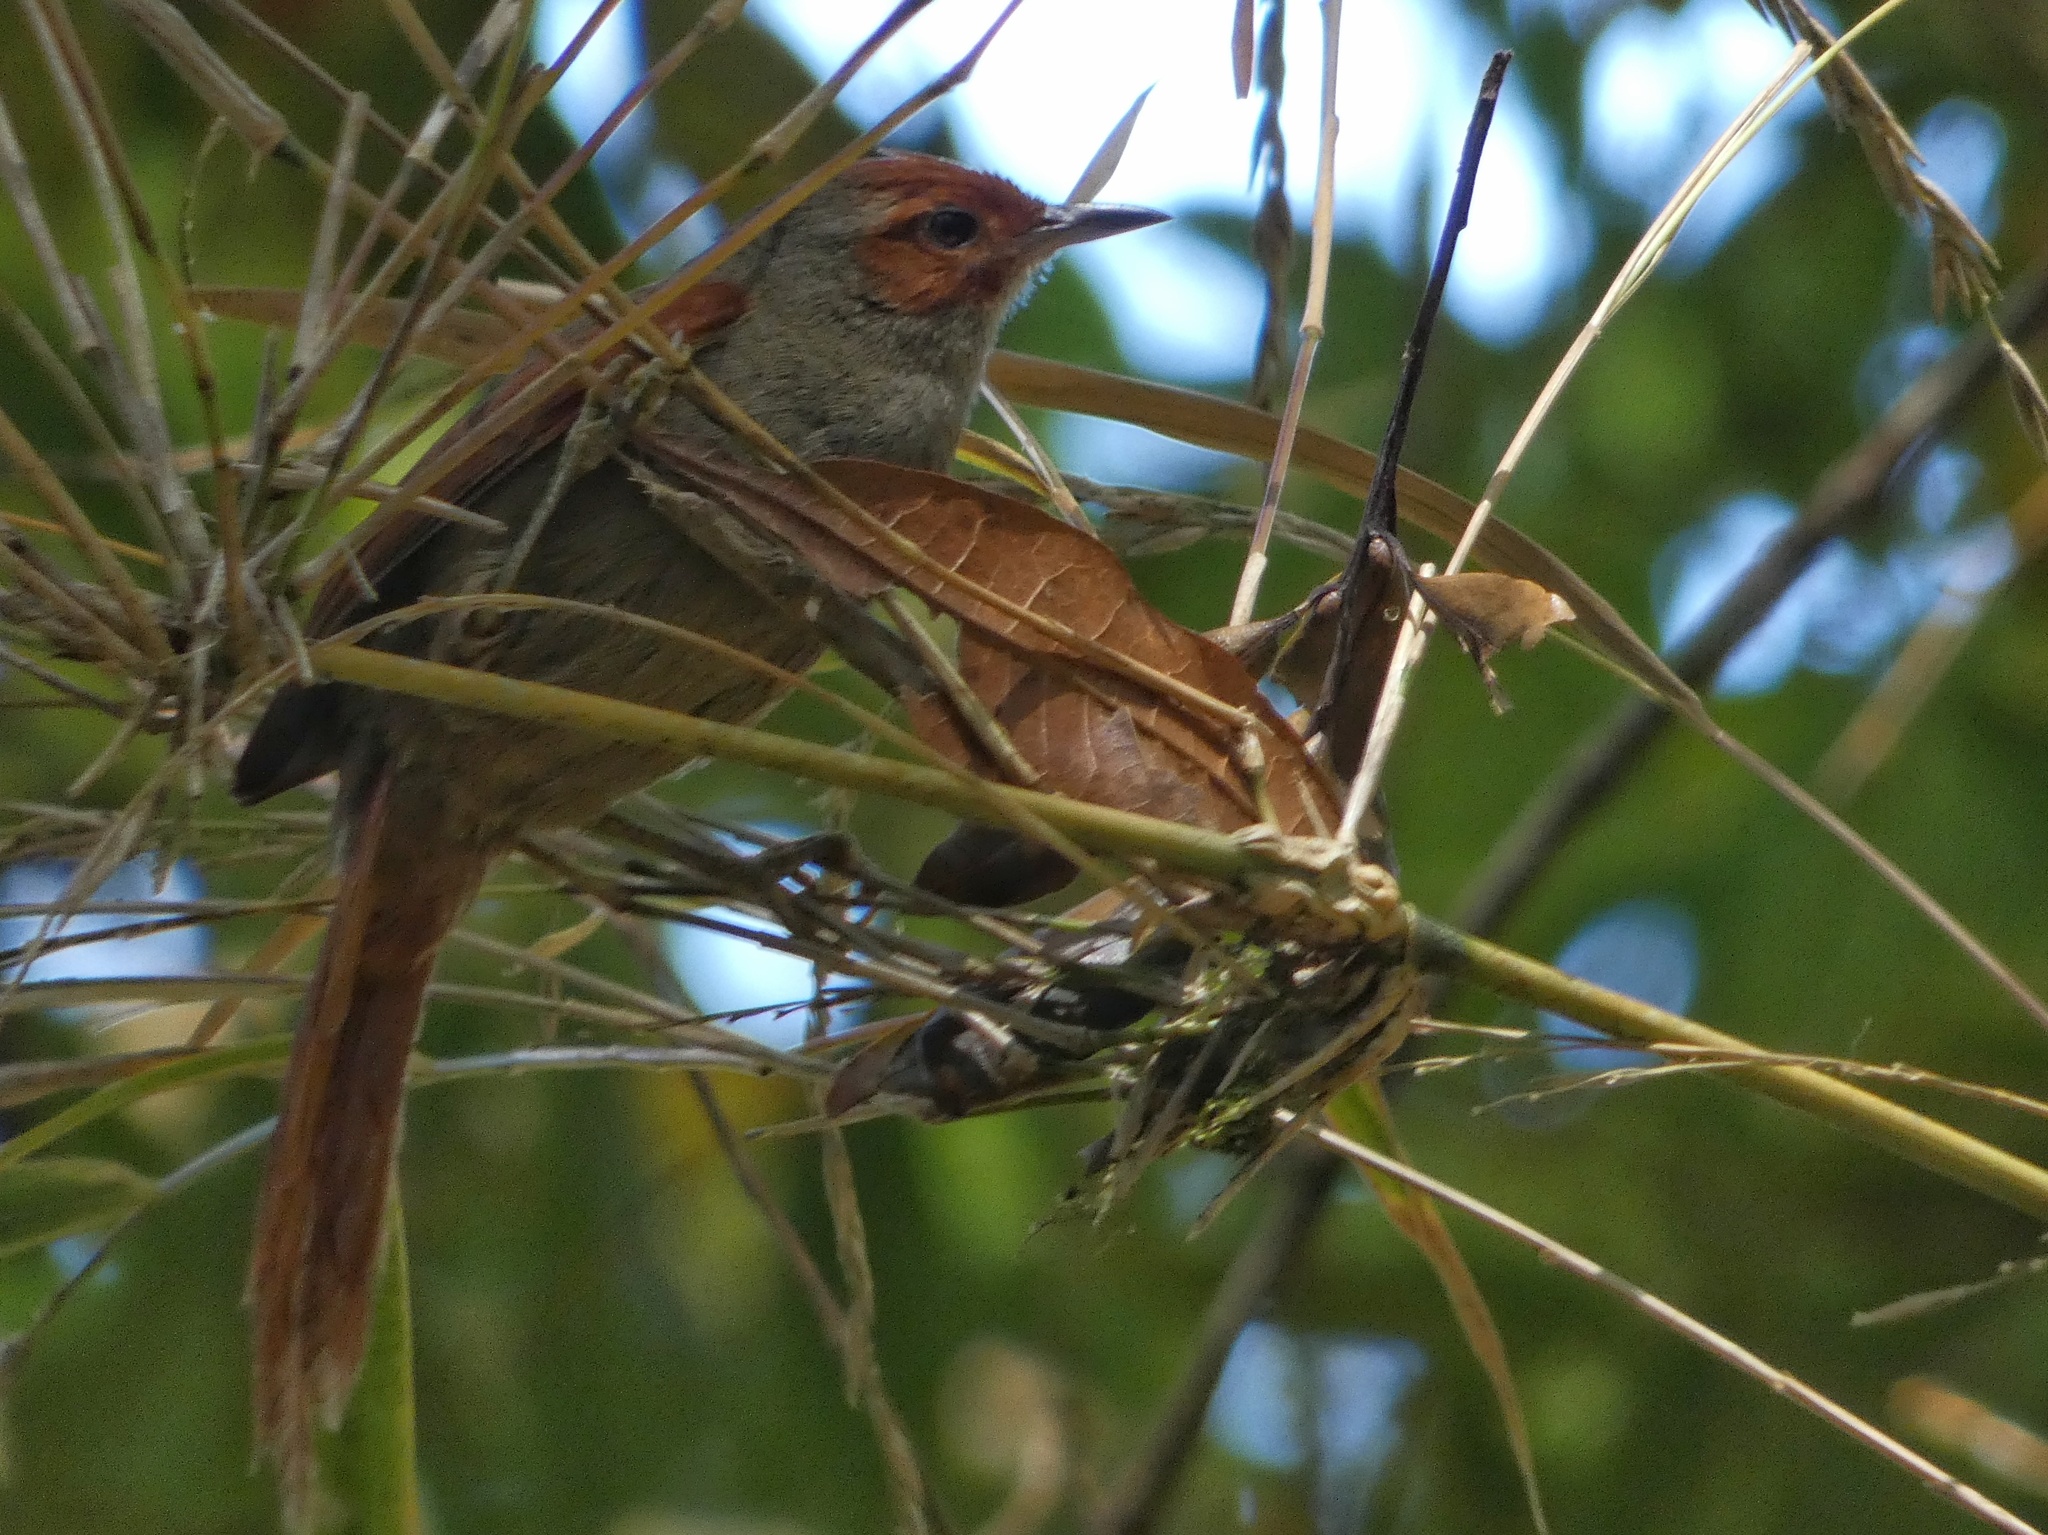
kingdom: Animalia
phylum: Chordata
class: Aves
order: Passeriformes
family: Furnariidae
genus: Cranioleuca
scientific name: Cranioleuca erythrops
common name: Red-faced spinetail
